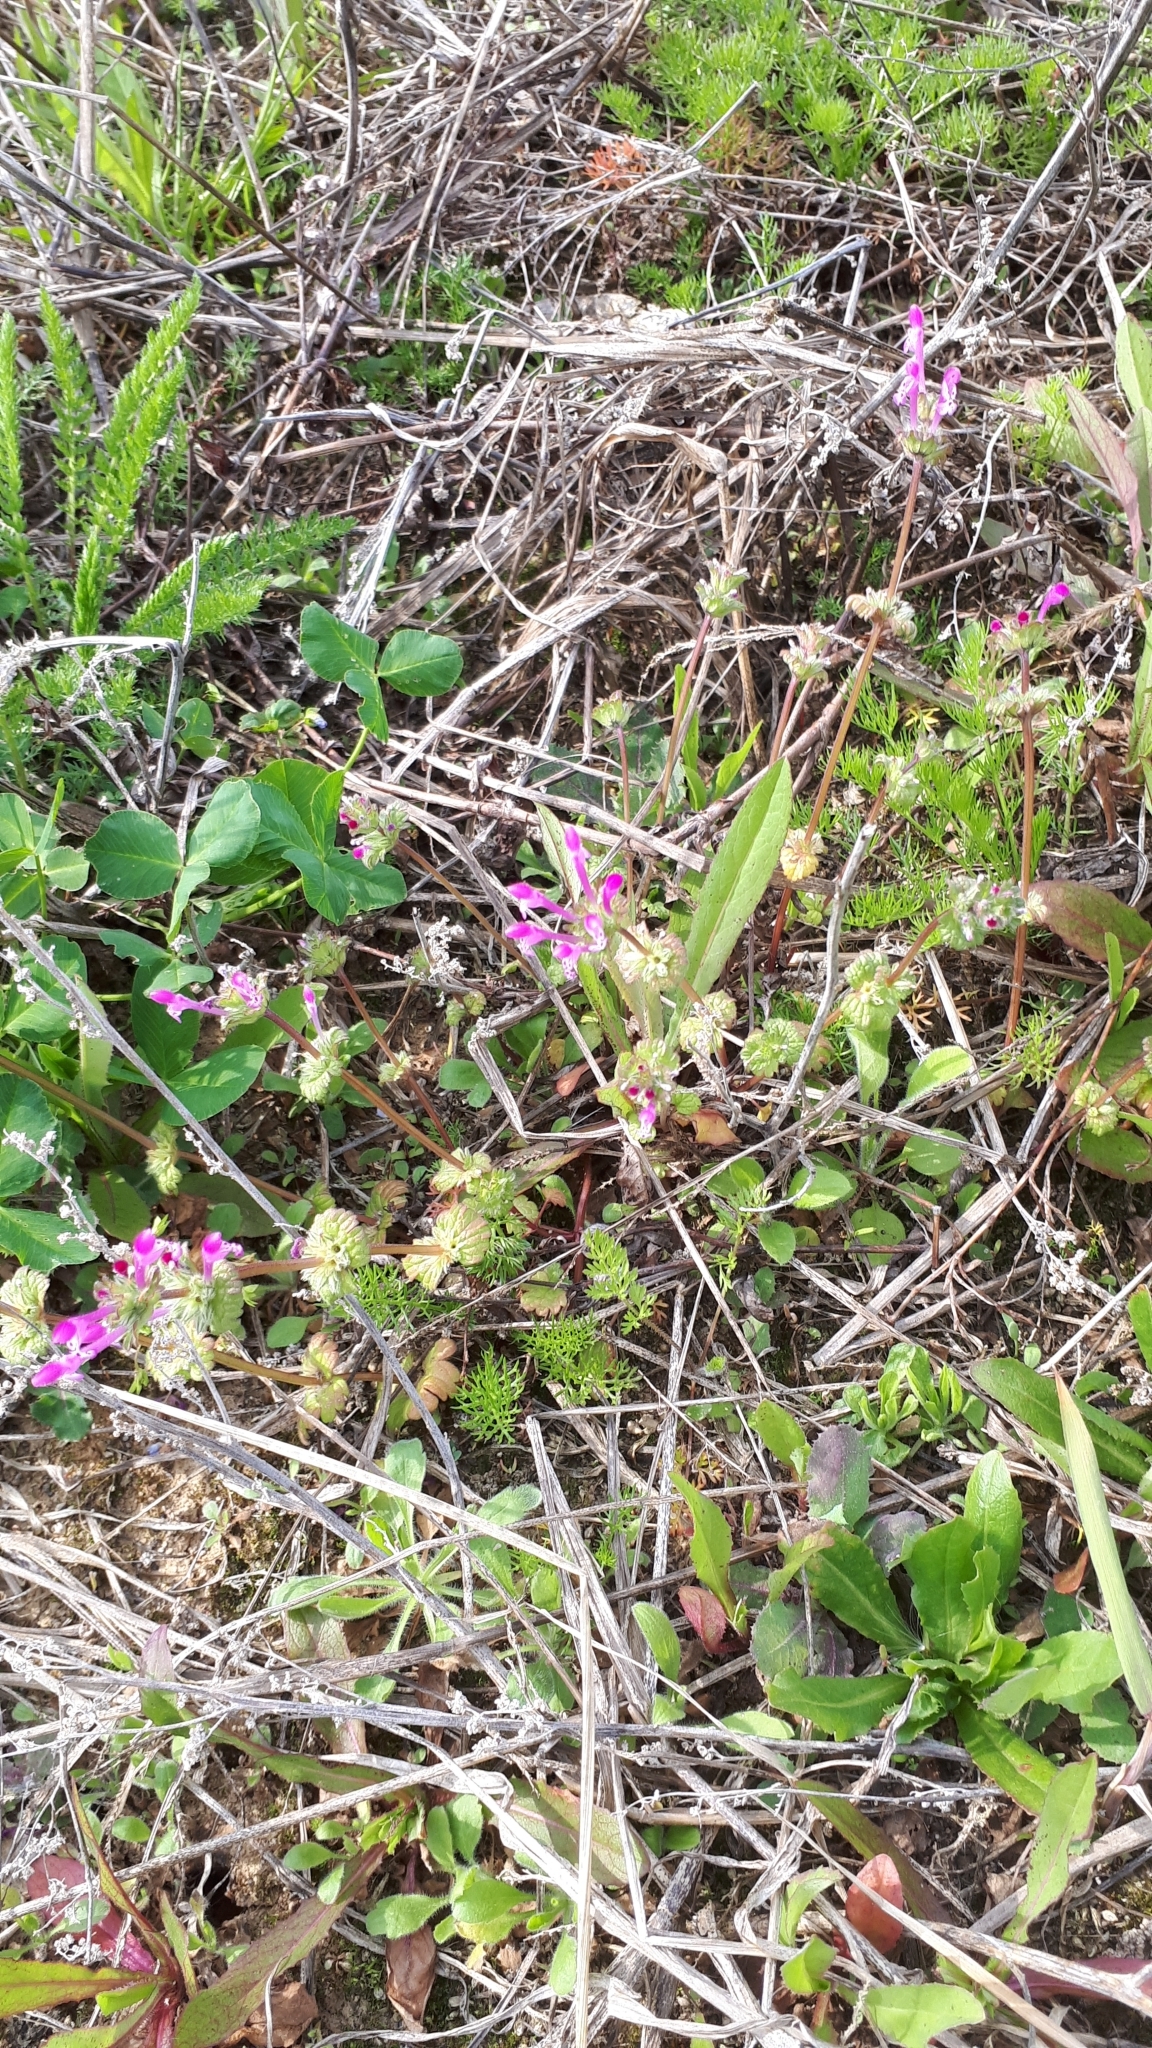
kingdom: Plantae
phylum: Tracheophyta
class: Magnoliopsida
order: Lamiales
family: Lamiaceae
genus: Lamium
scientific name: Lamium amplexicaule
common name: Henbit dead-nettle
